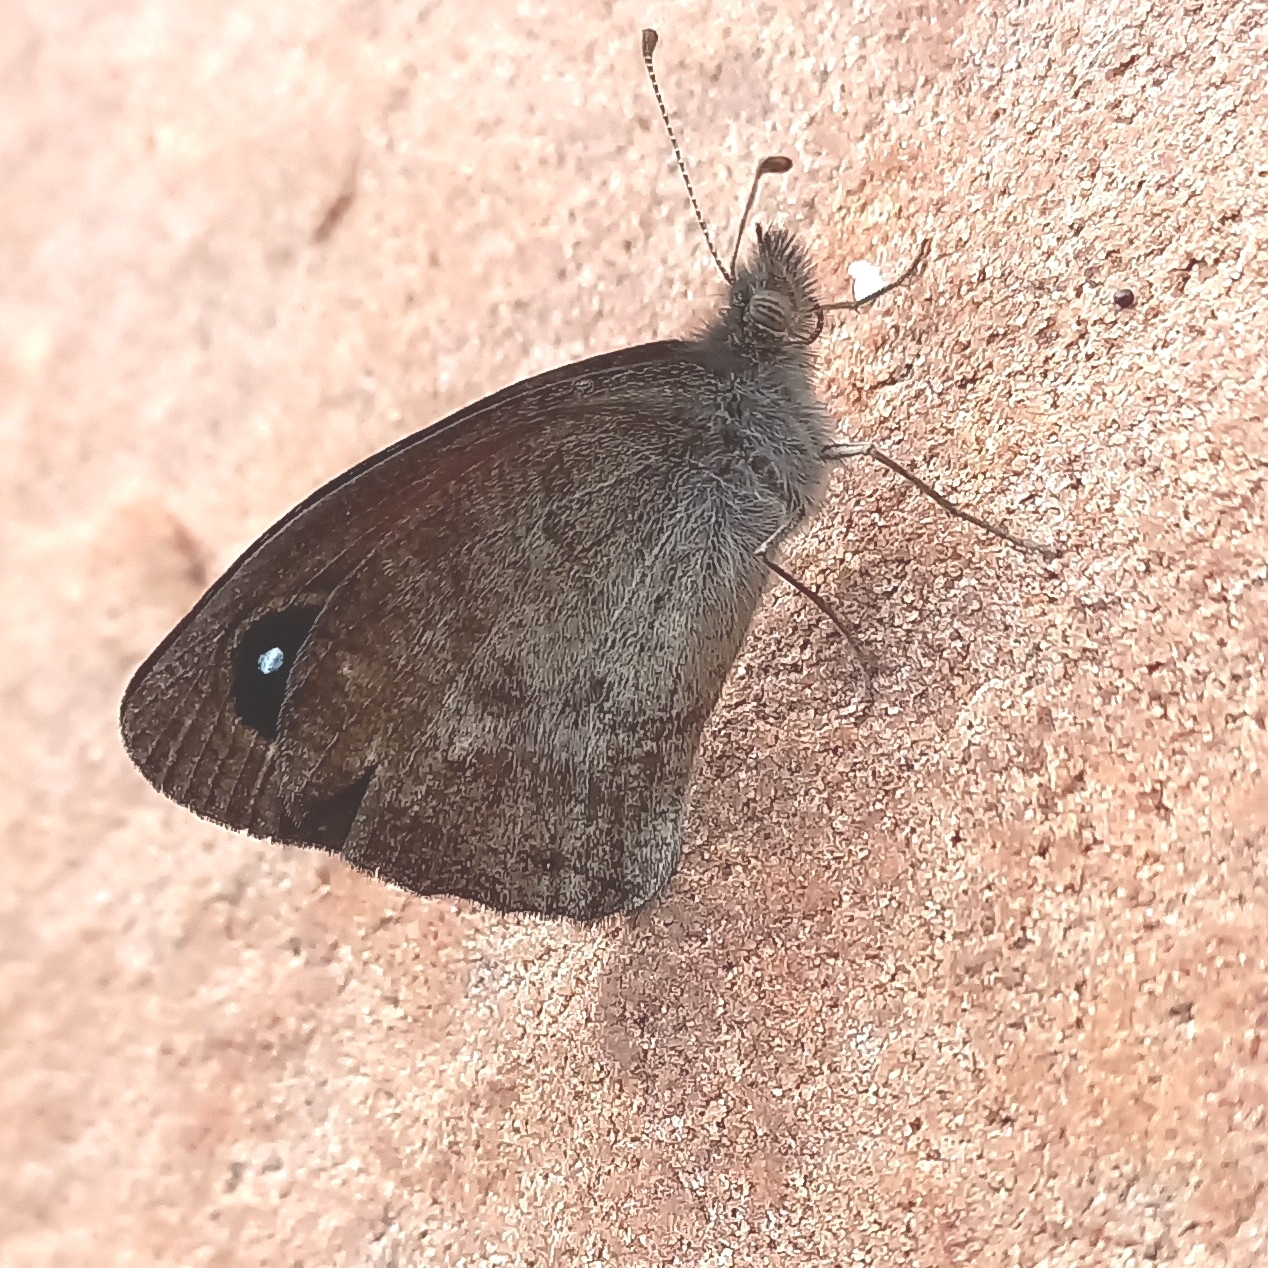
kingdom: Animalia
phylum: Arthropoda
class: Insecta
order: Lepidoptera
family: Nymphalidae
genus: Stygionympha
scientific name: Stygionympha vigilans
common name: Western hillside brown
